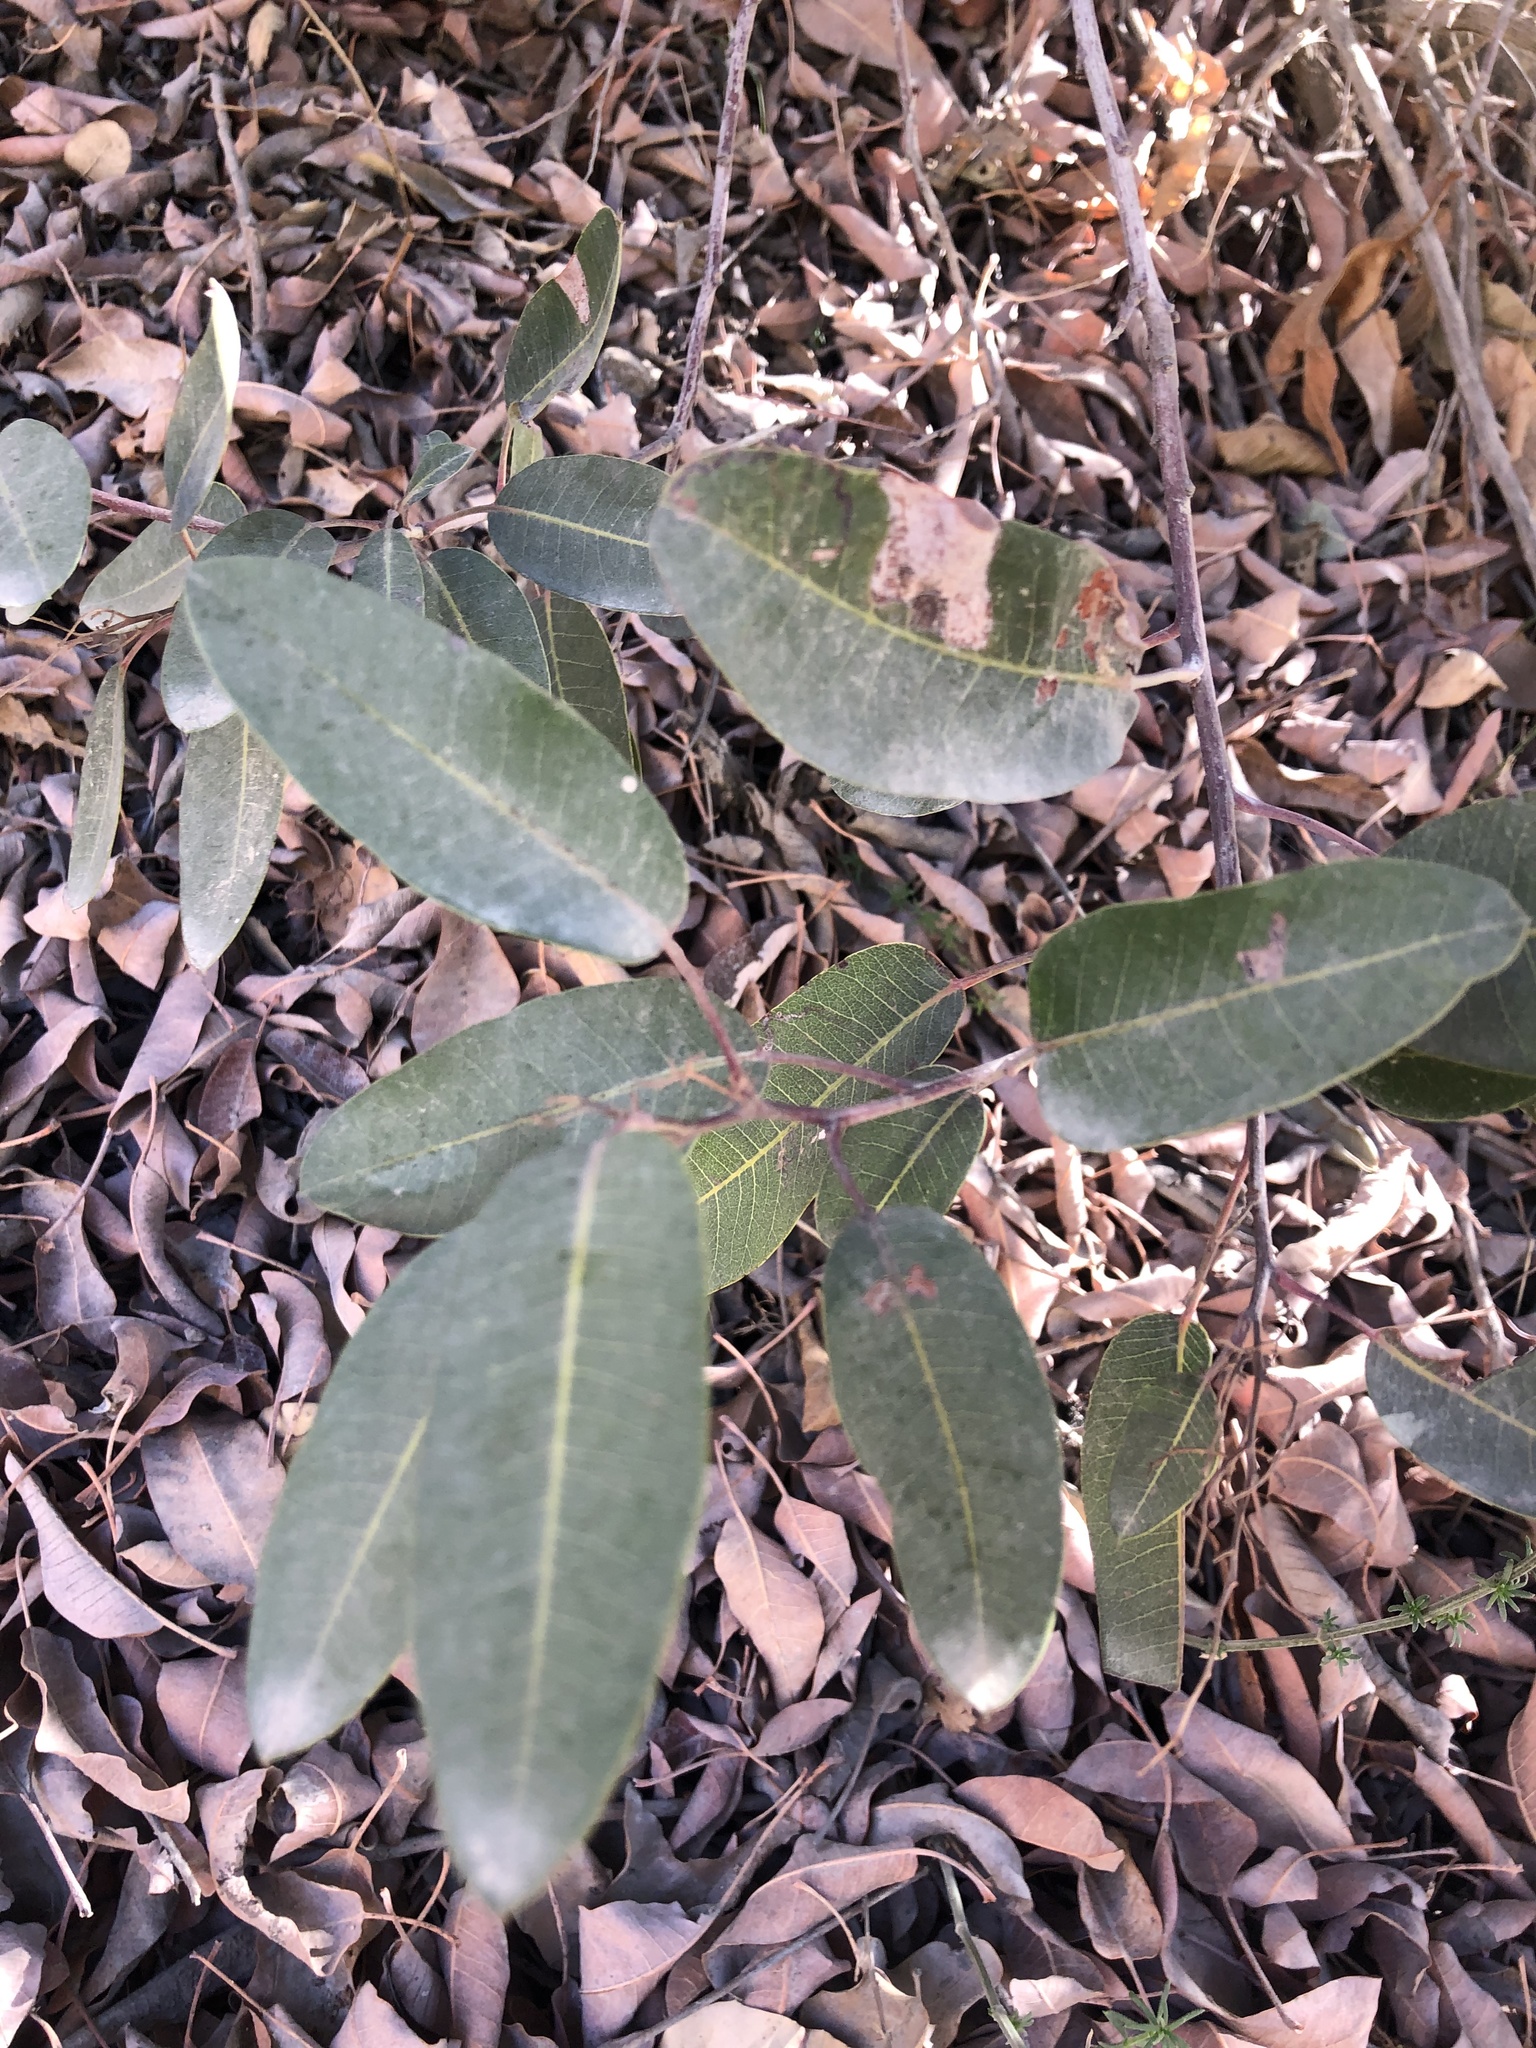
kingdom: Plantae
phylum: Tracheophyta
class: Magnoliopsida
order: Sapindales
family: Anacardiaceae
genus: Malosma
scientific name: Malosma laurina
